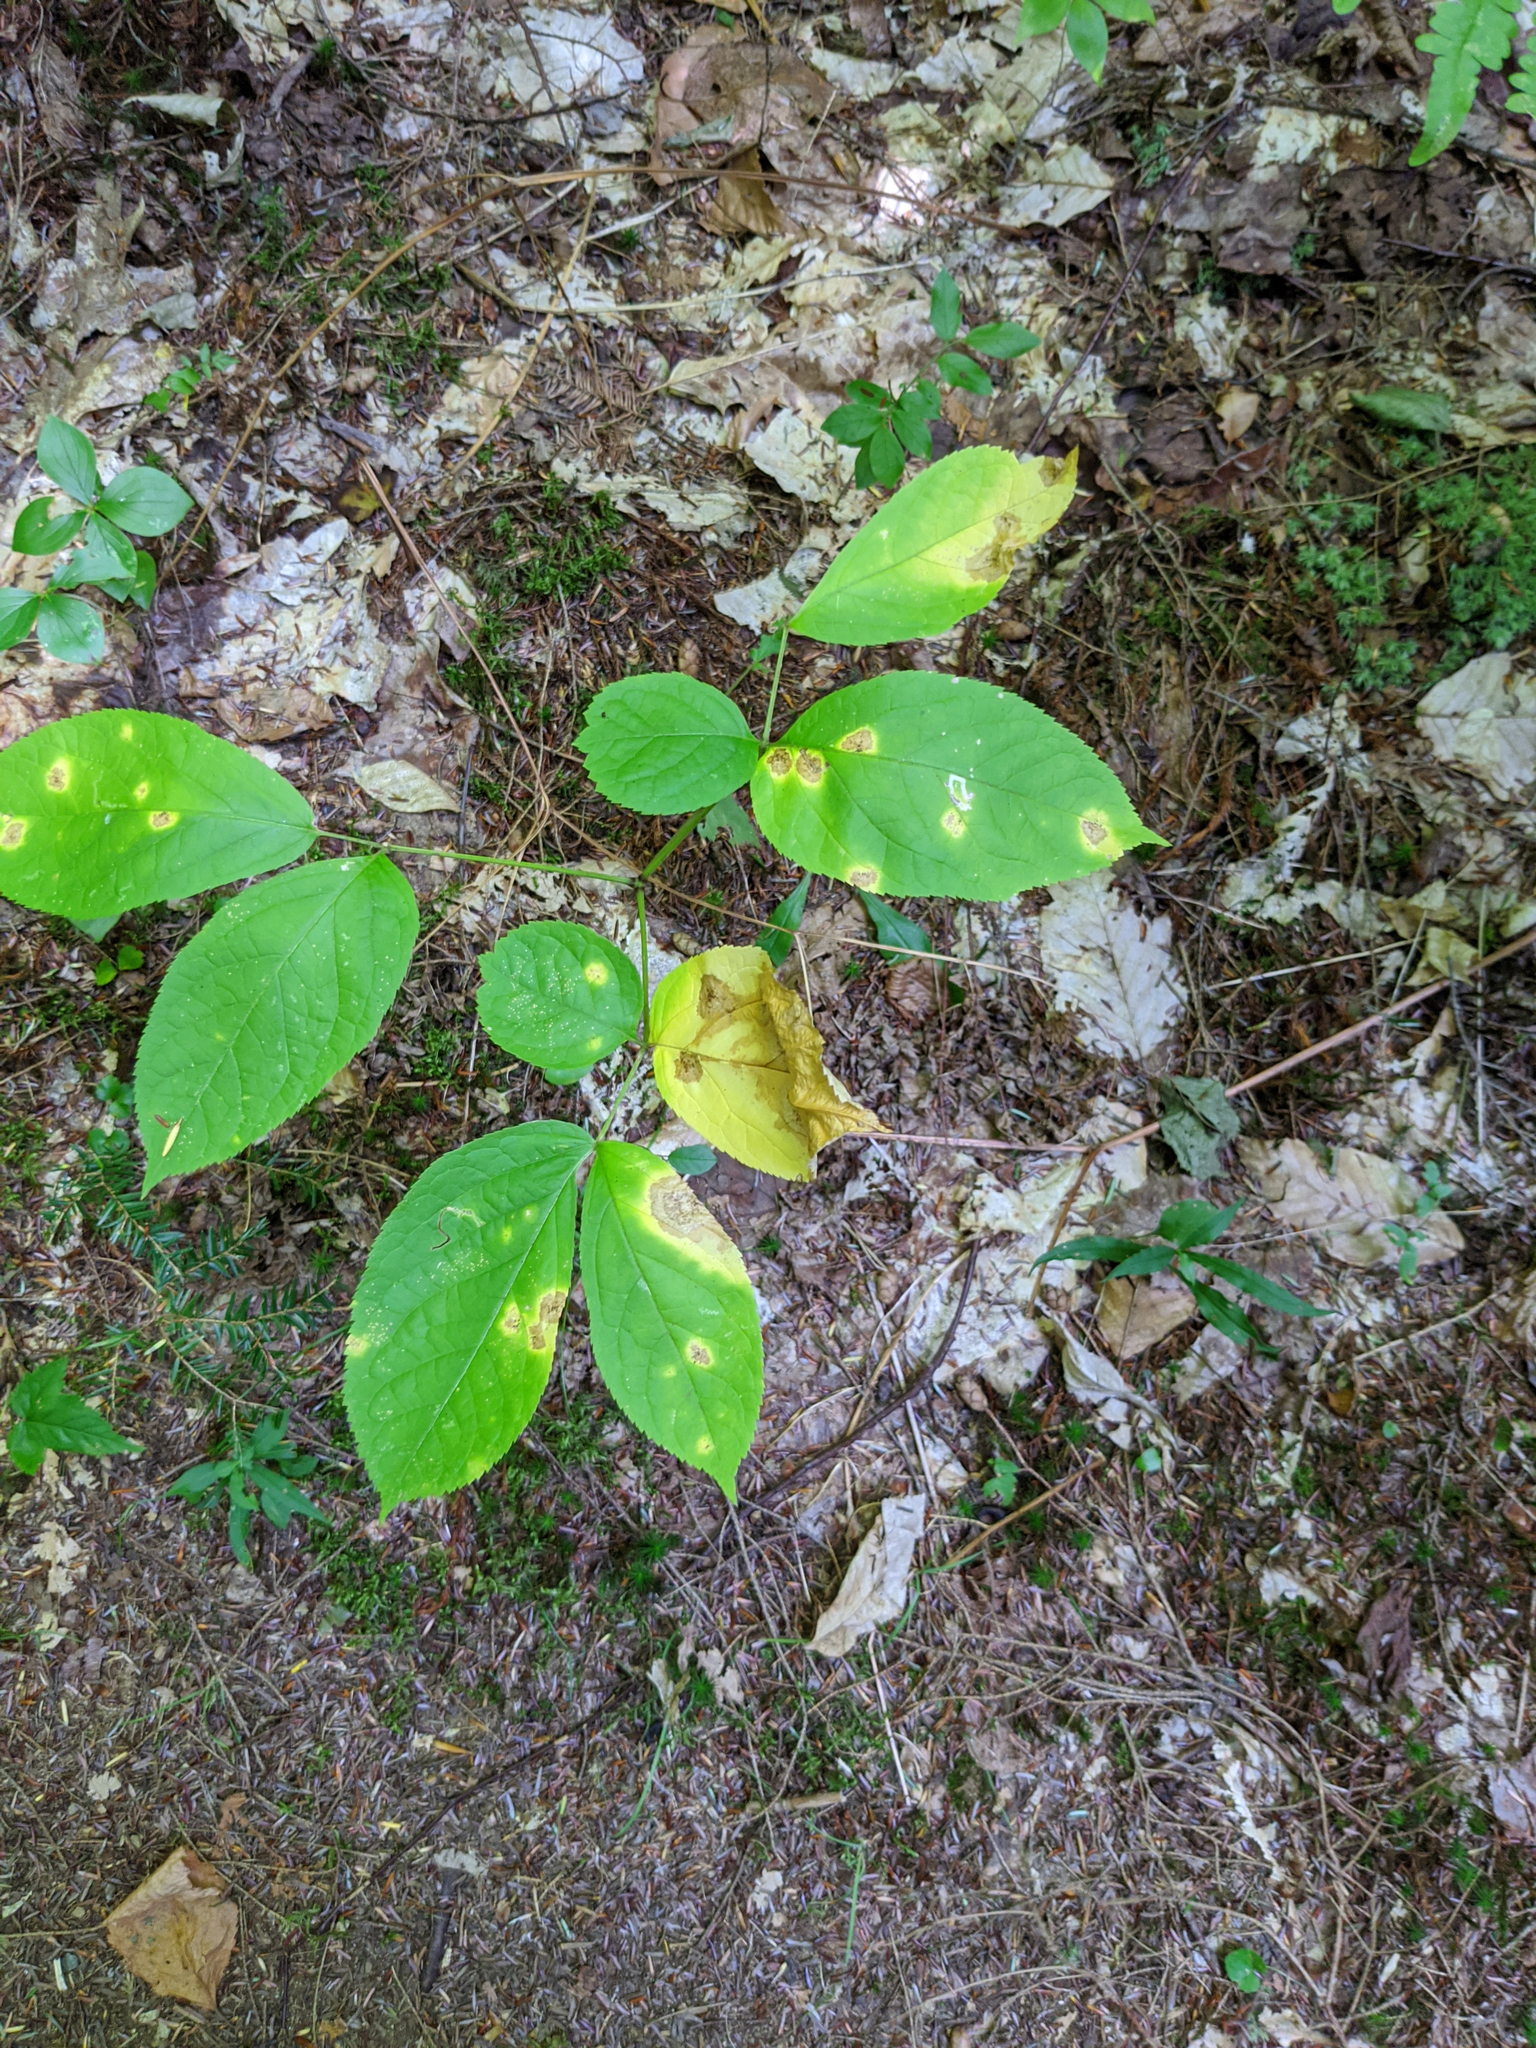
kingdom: Plantae
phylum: Tracheophyta
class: Magnoliopsida
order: Apiales
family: Araliaceae
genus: Aralia
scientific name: Aralia nudicaulis
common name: Wild sarsaparilla
